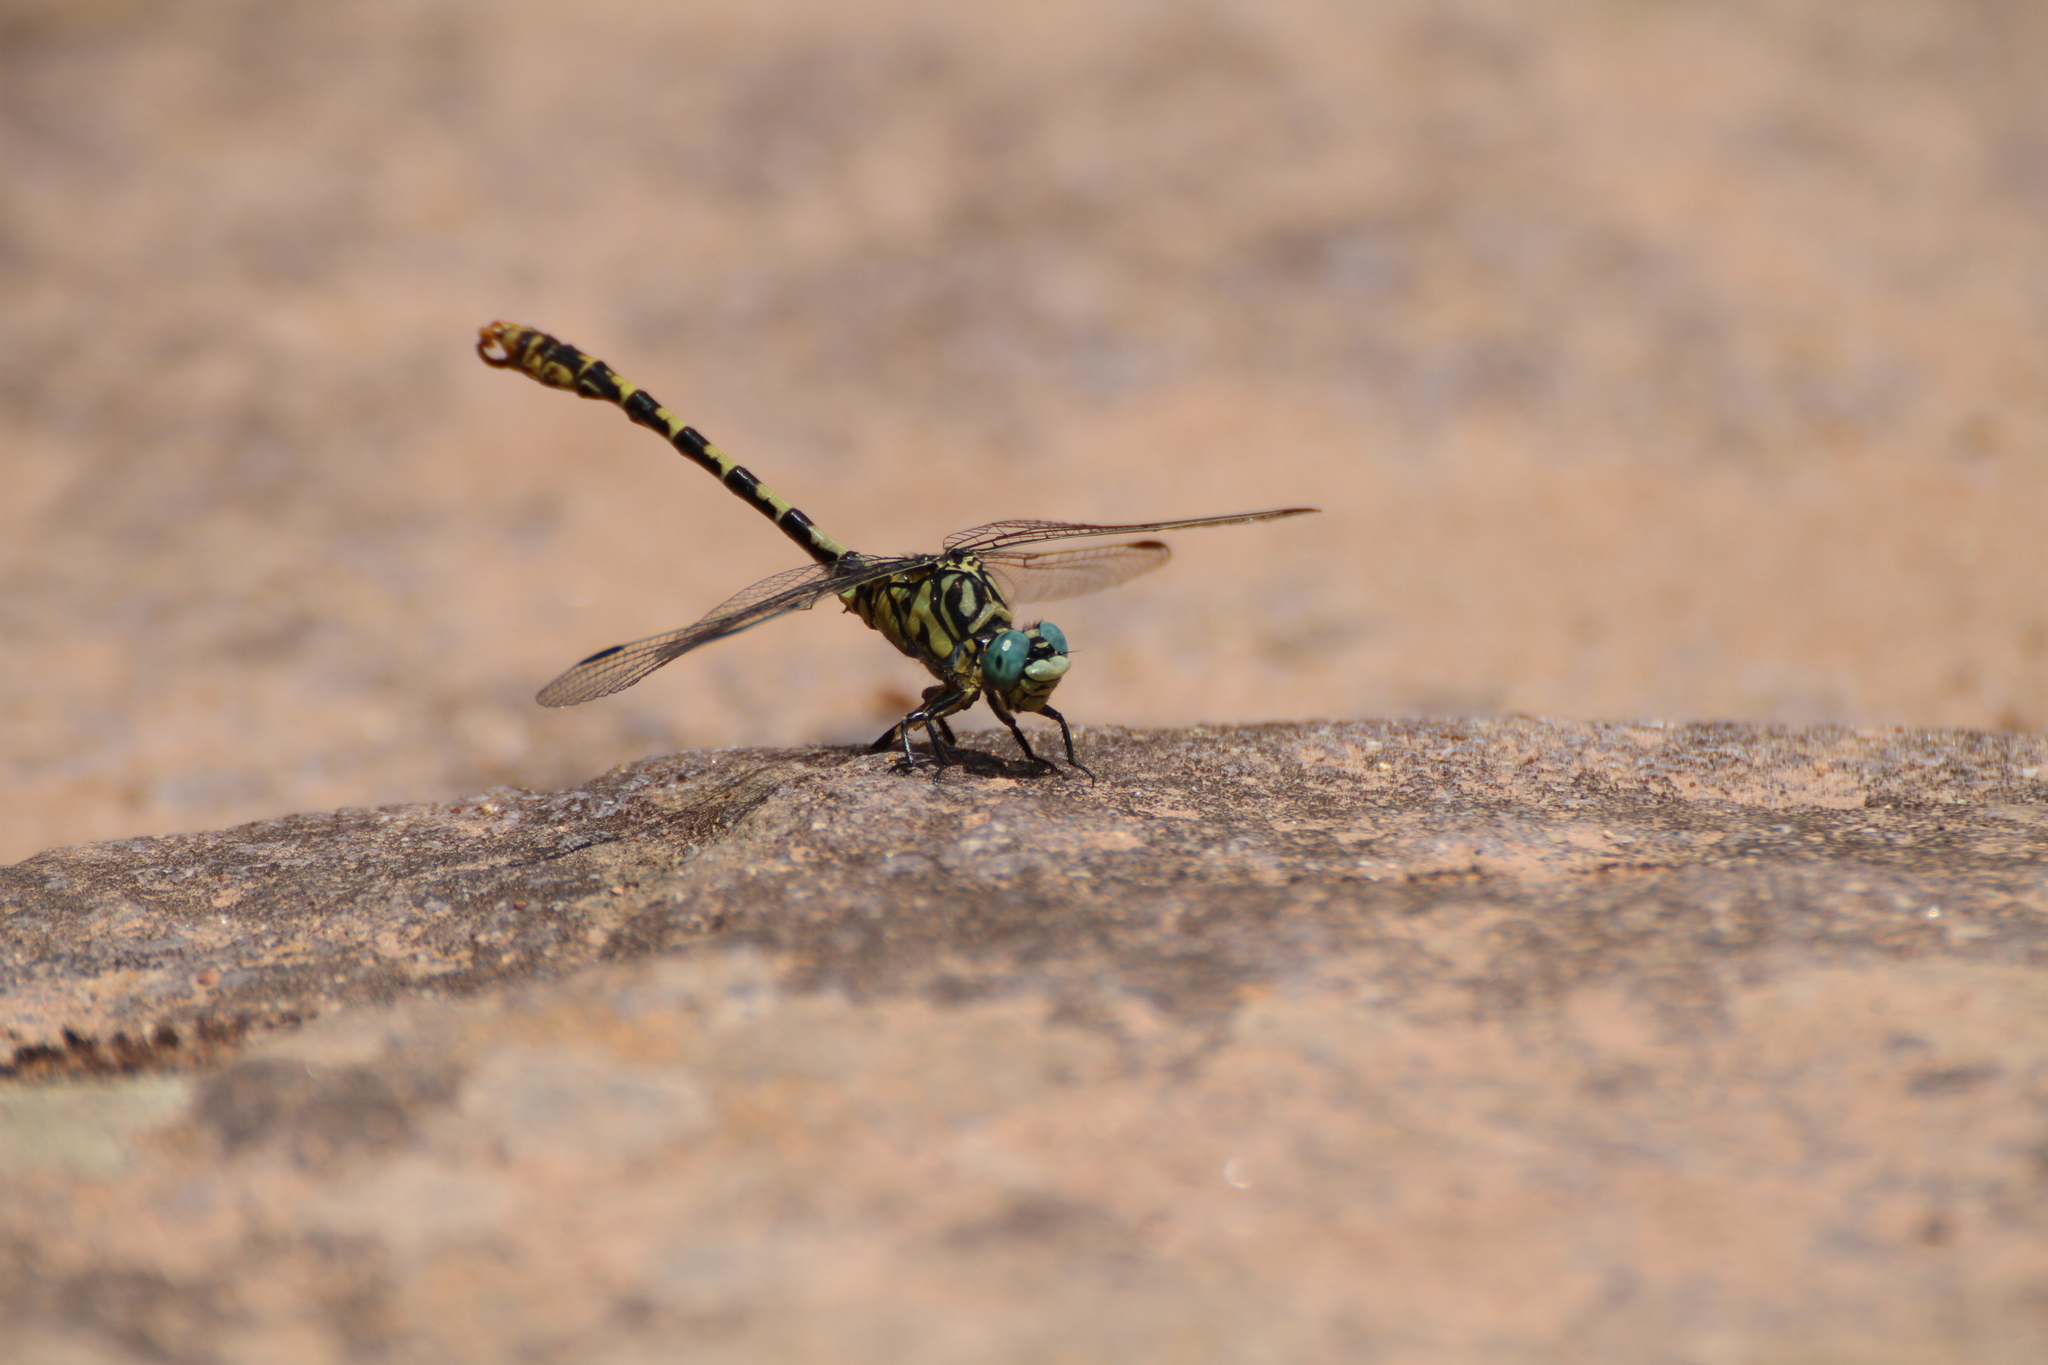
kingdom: Animalia
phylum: Arthropoda
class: Insecta
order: Odonata
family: Gomphidae
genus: Onychogomphus
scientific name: Onychogomphus forcipatus
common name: Small pincertail
